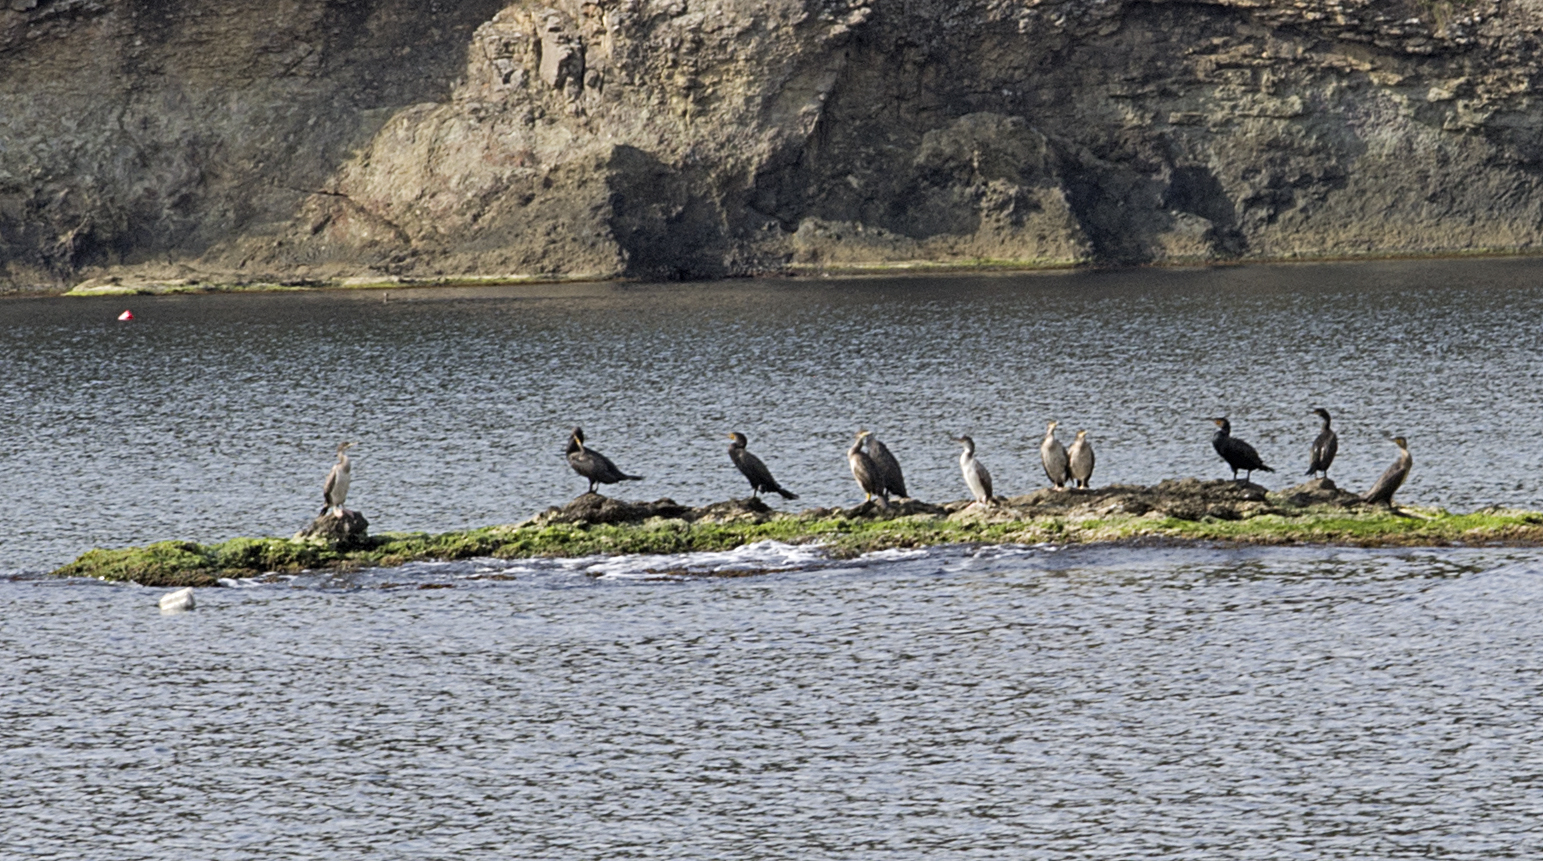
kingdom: Animalia
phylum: Chordata
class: Aves
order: Suliformes
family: Phalacrocoracidae
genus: Phalacrocorax
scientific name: Phalacrocorax carbo
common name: Great cormorant
